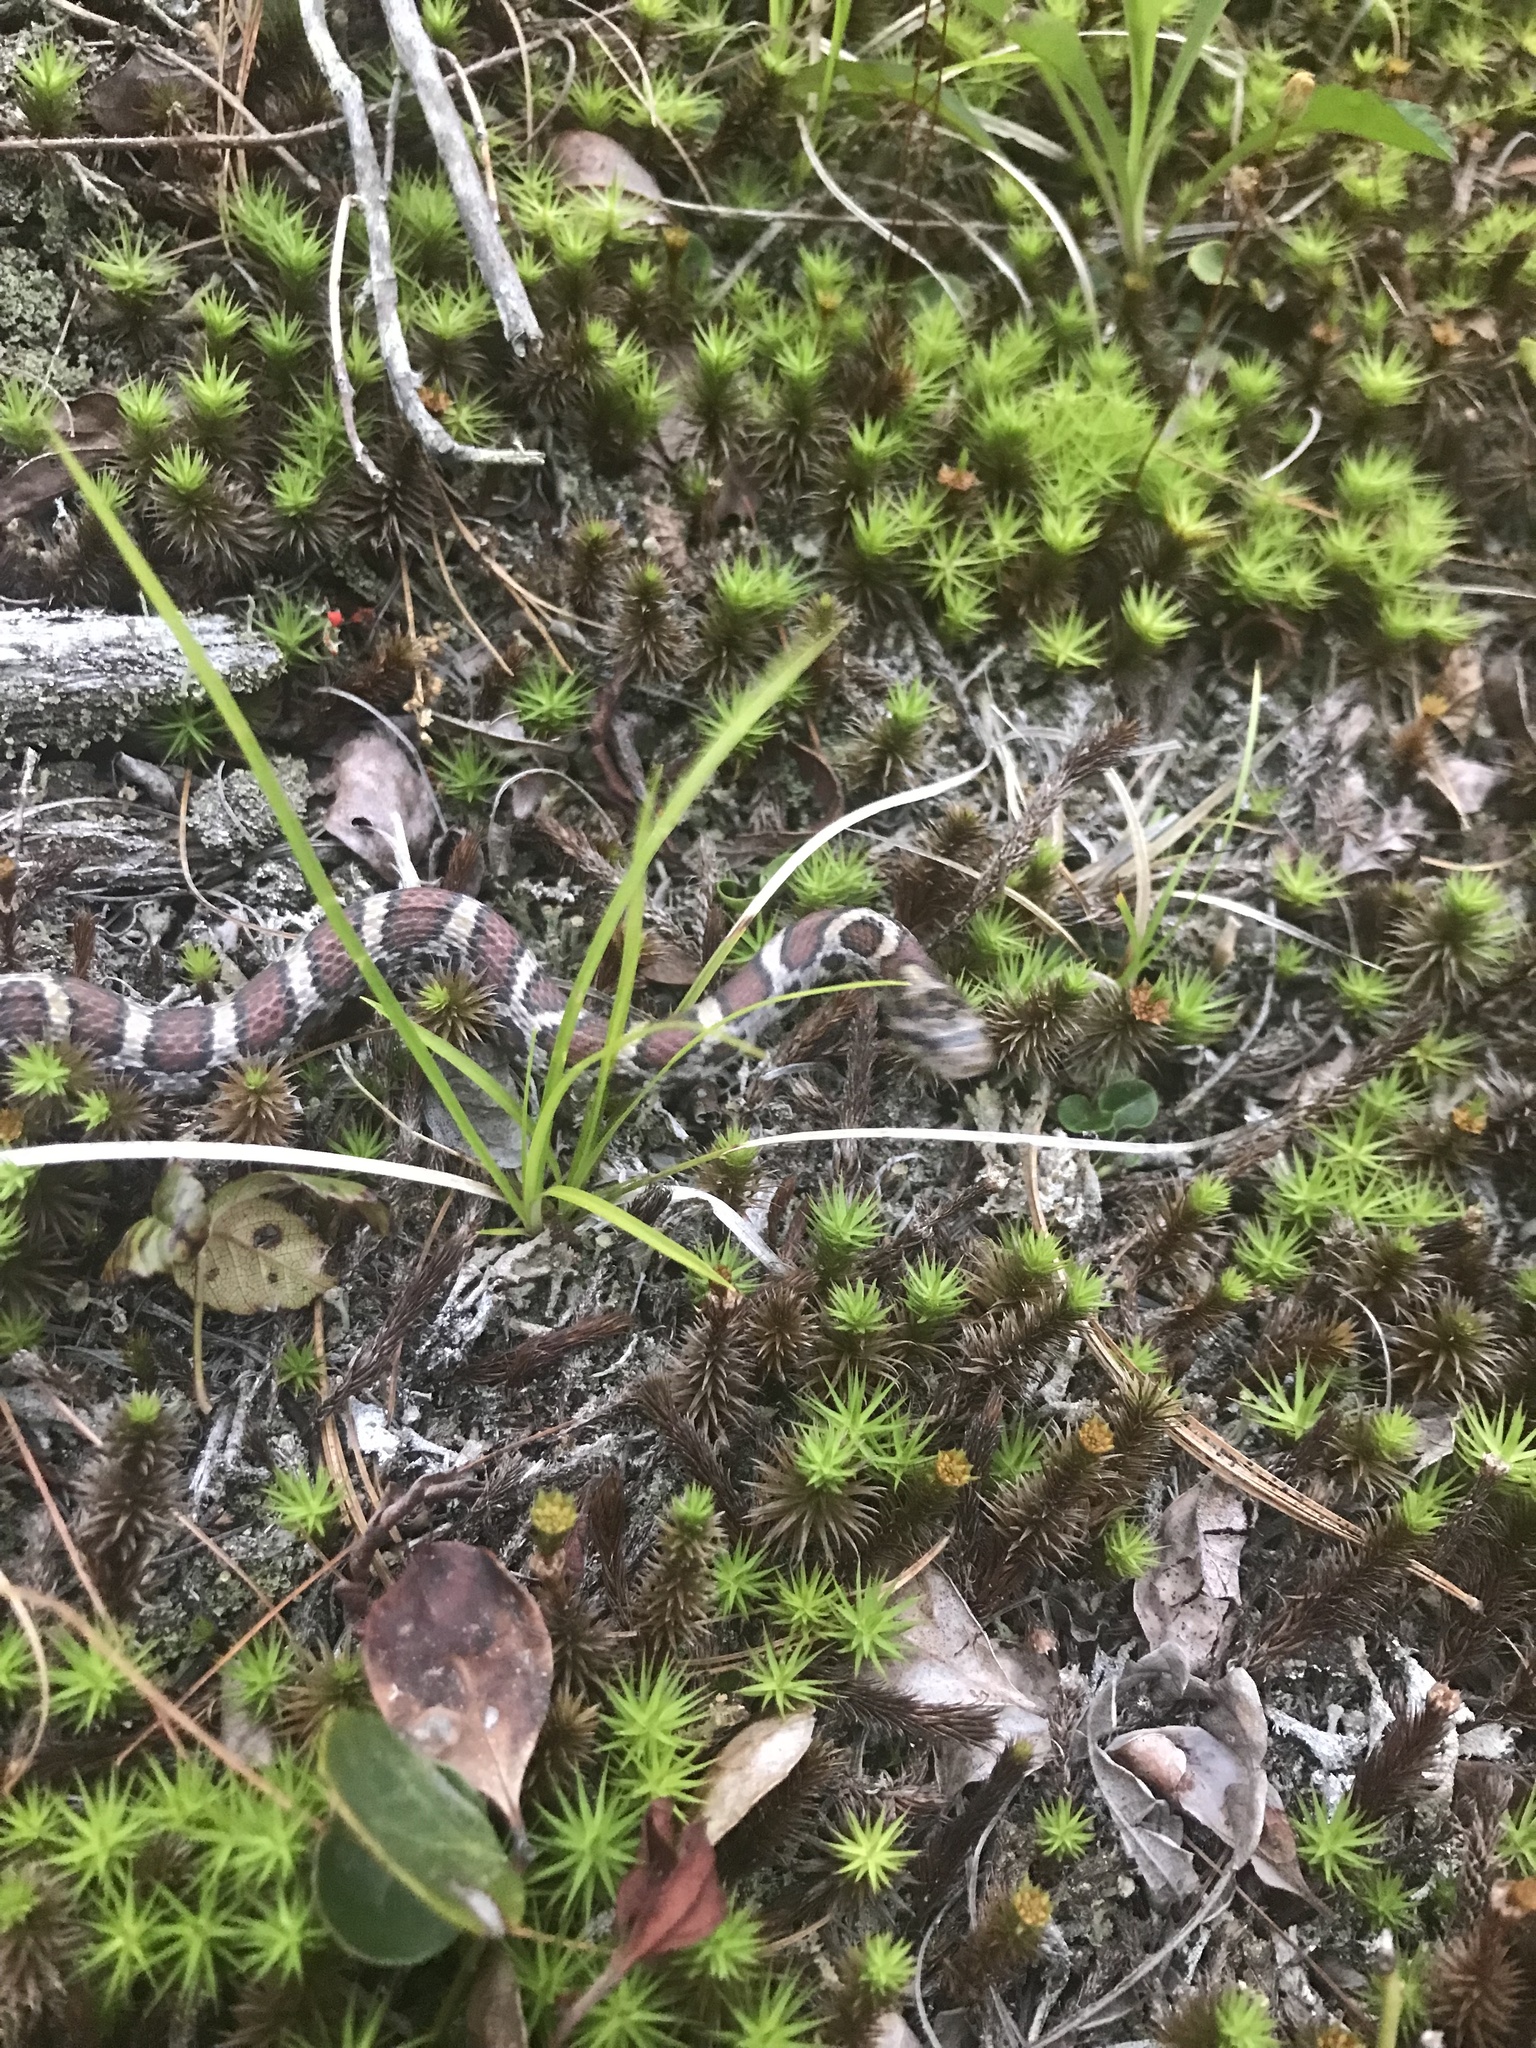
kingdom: Animalia
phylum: Chordata
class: Squamata
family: Colubridae
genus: Lampropeltis
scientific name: Lampropeltis triangulum
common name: Eastern milksnake
